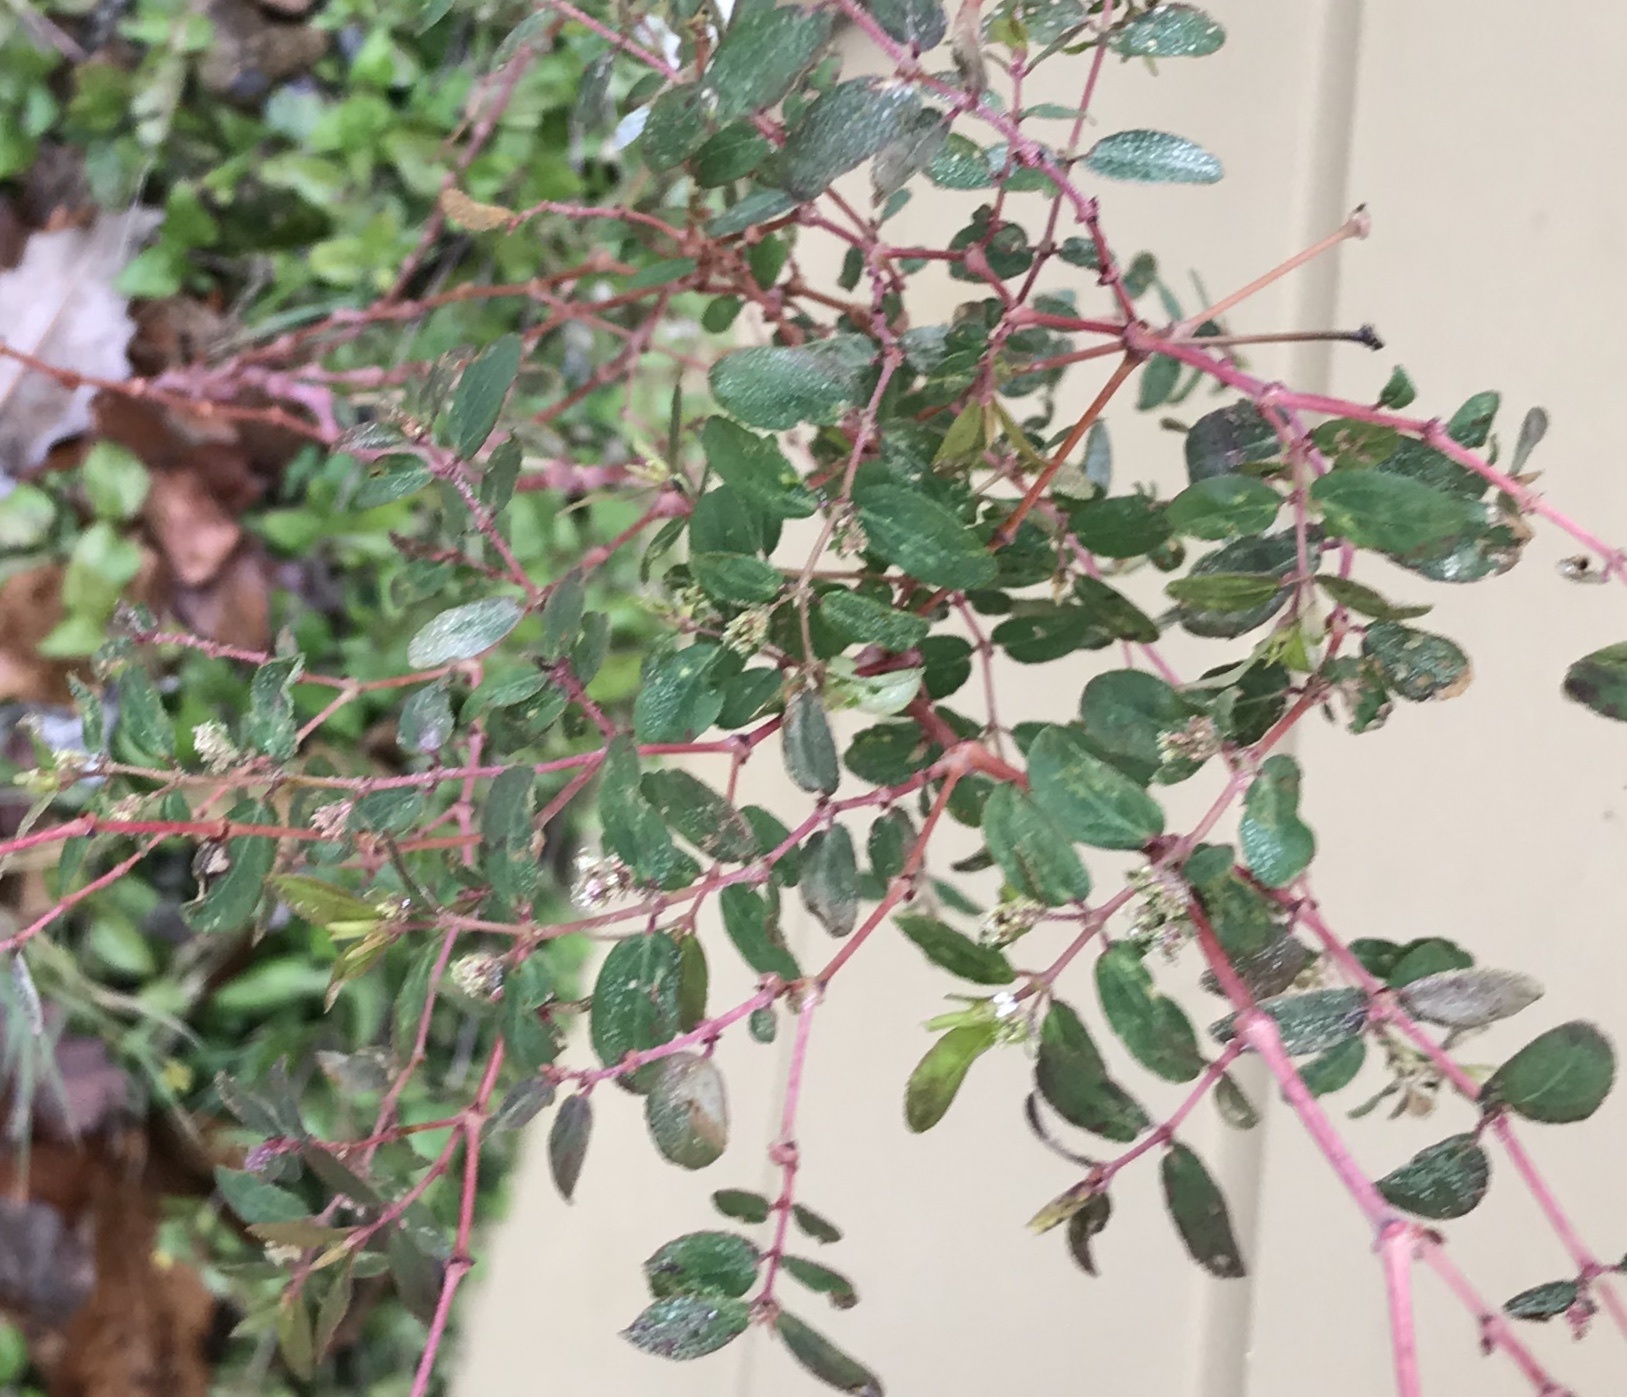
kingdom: Plantae
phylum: Tracheophyta
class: Magnoliopsida
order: Malpighiales
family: Euphorbiaceae
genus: Euphorbia
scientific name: Euphorbia hypericifolia
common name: Graceful sandmat
